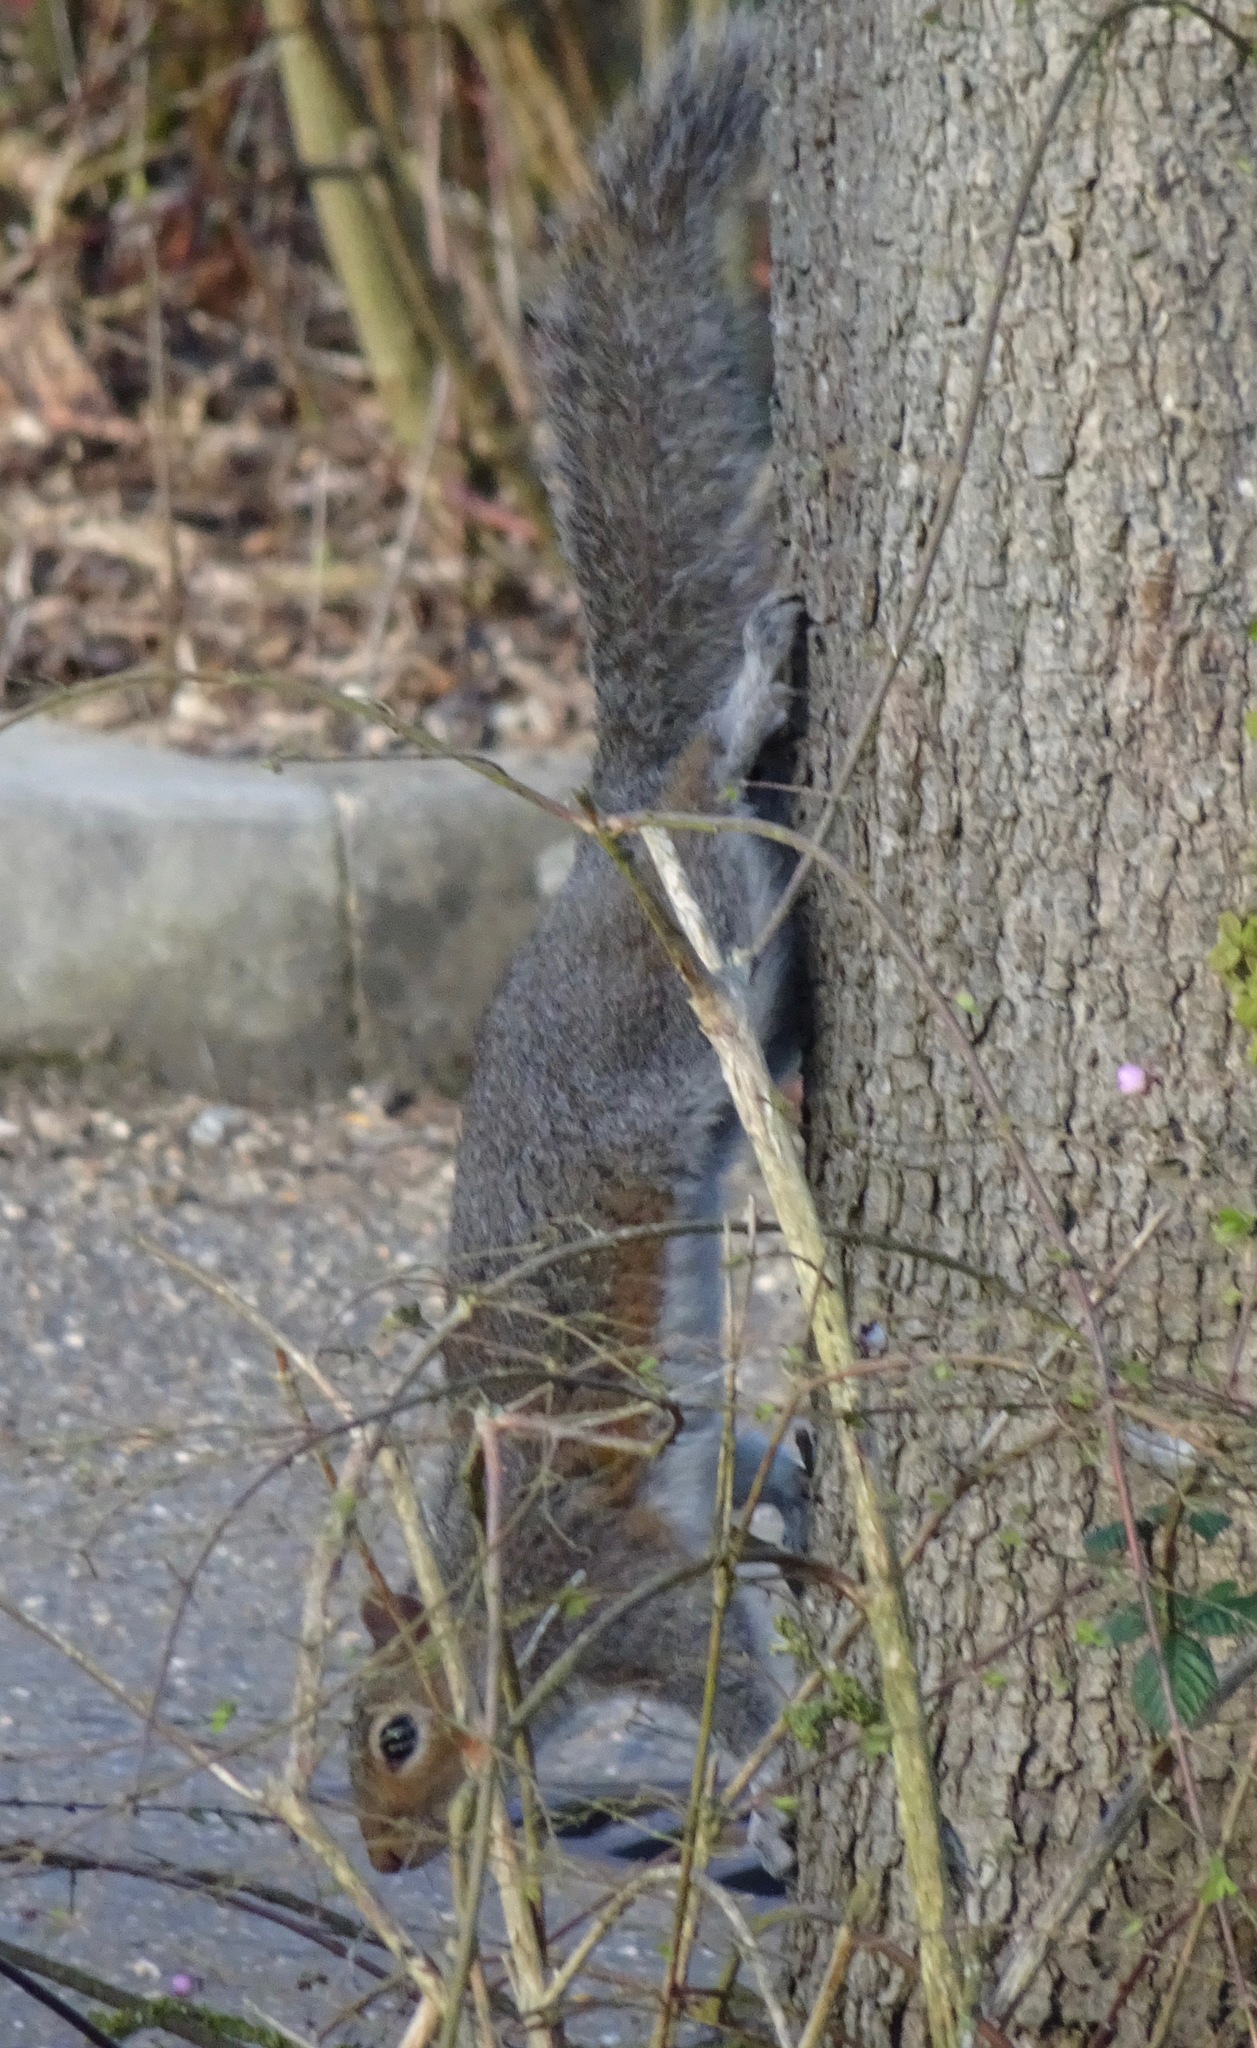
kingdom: Animalia
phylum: Chordata
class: Mammalia
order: Rodentia
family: Sciuridae
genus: Sciurus
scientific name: Sciurus carolinensis
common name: Eastern gray squirrel
